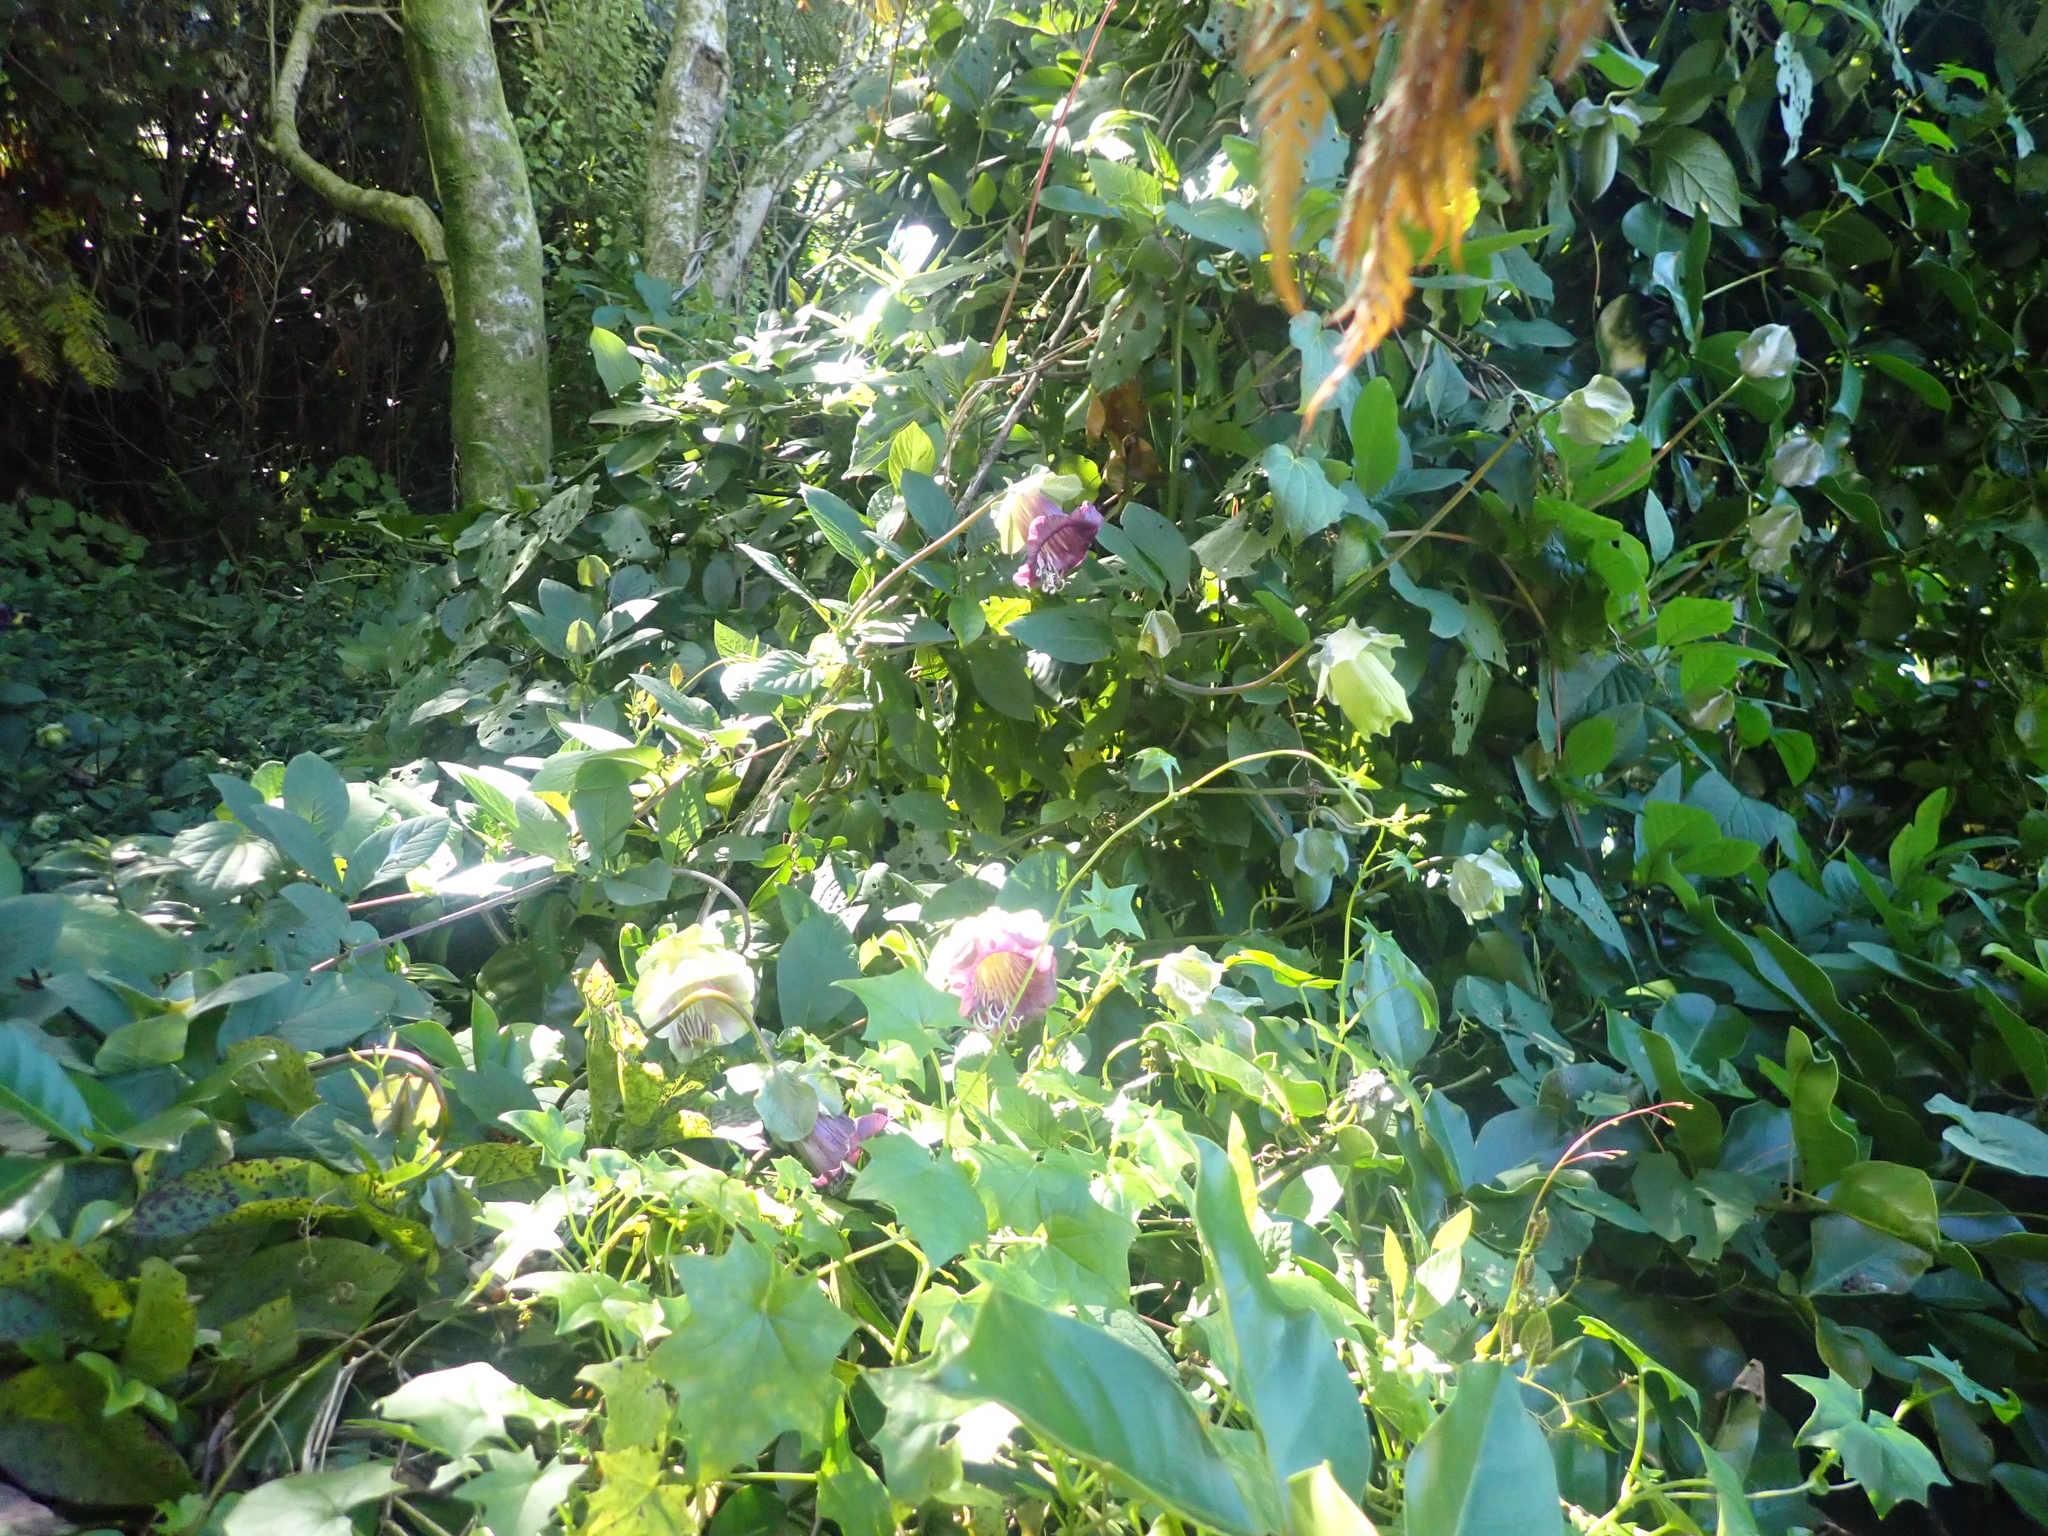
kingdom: Plantae
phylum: Tracheophyta
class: Magnoliopsida
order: Ericales
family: Polemoniaceae
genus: Cobaea
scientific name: Cobaea scandens
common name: Cup-and-saucer-vine
